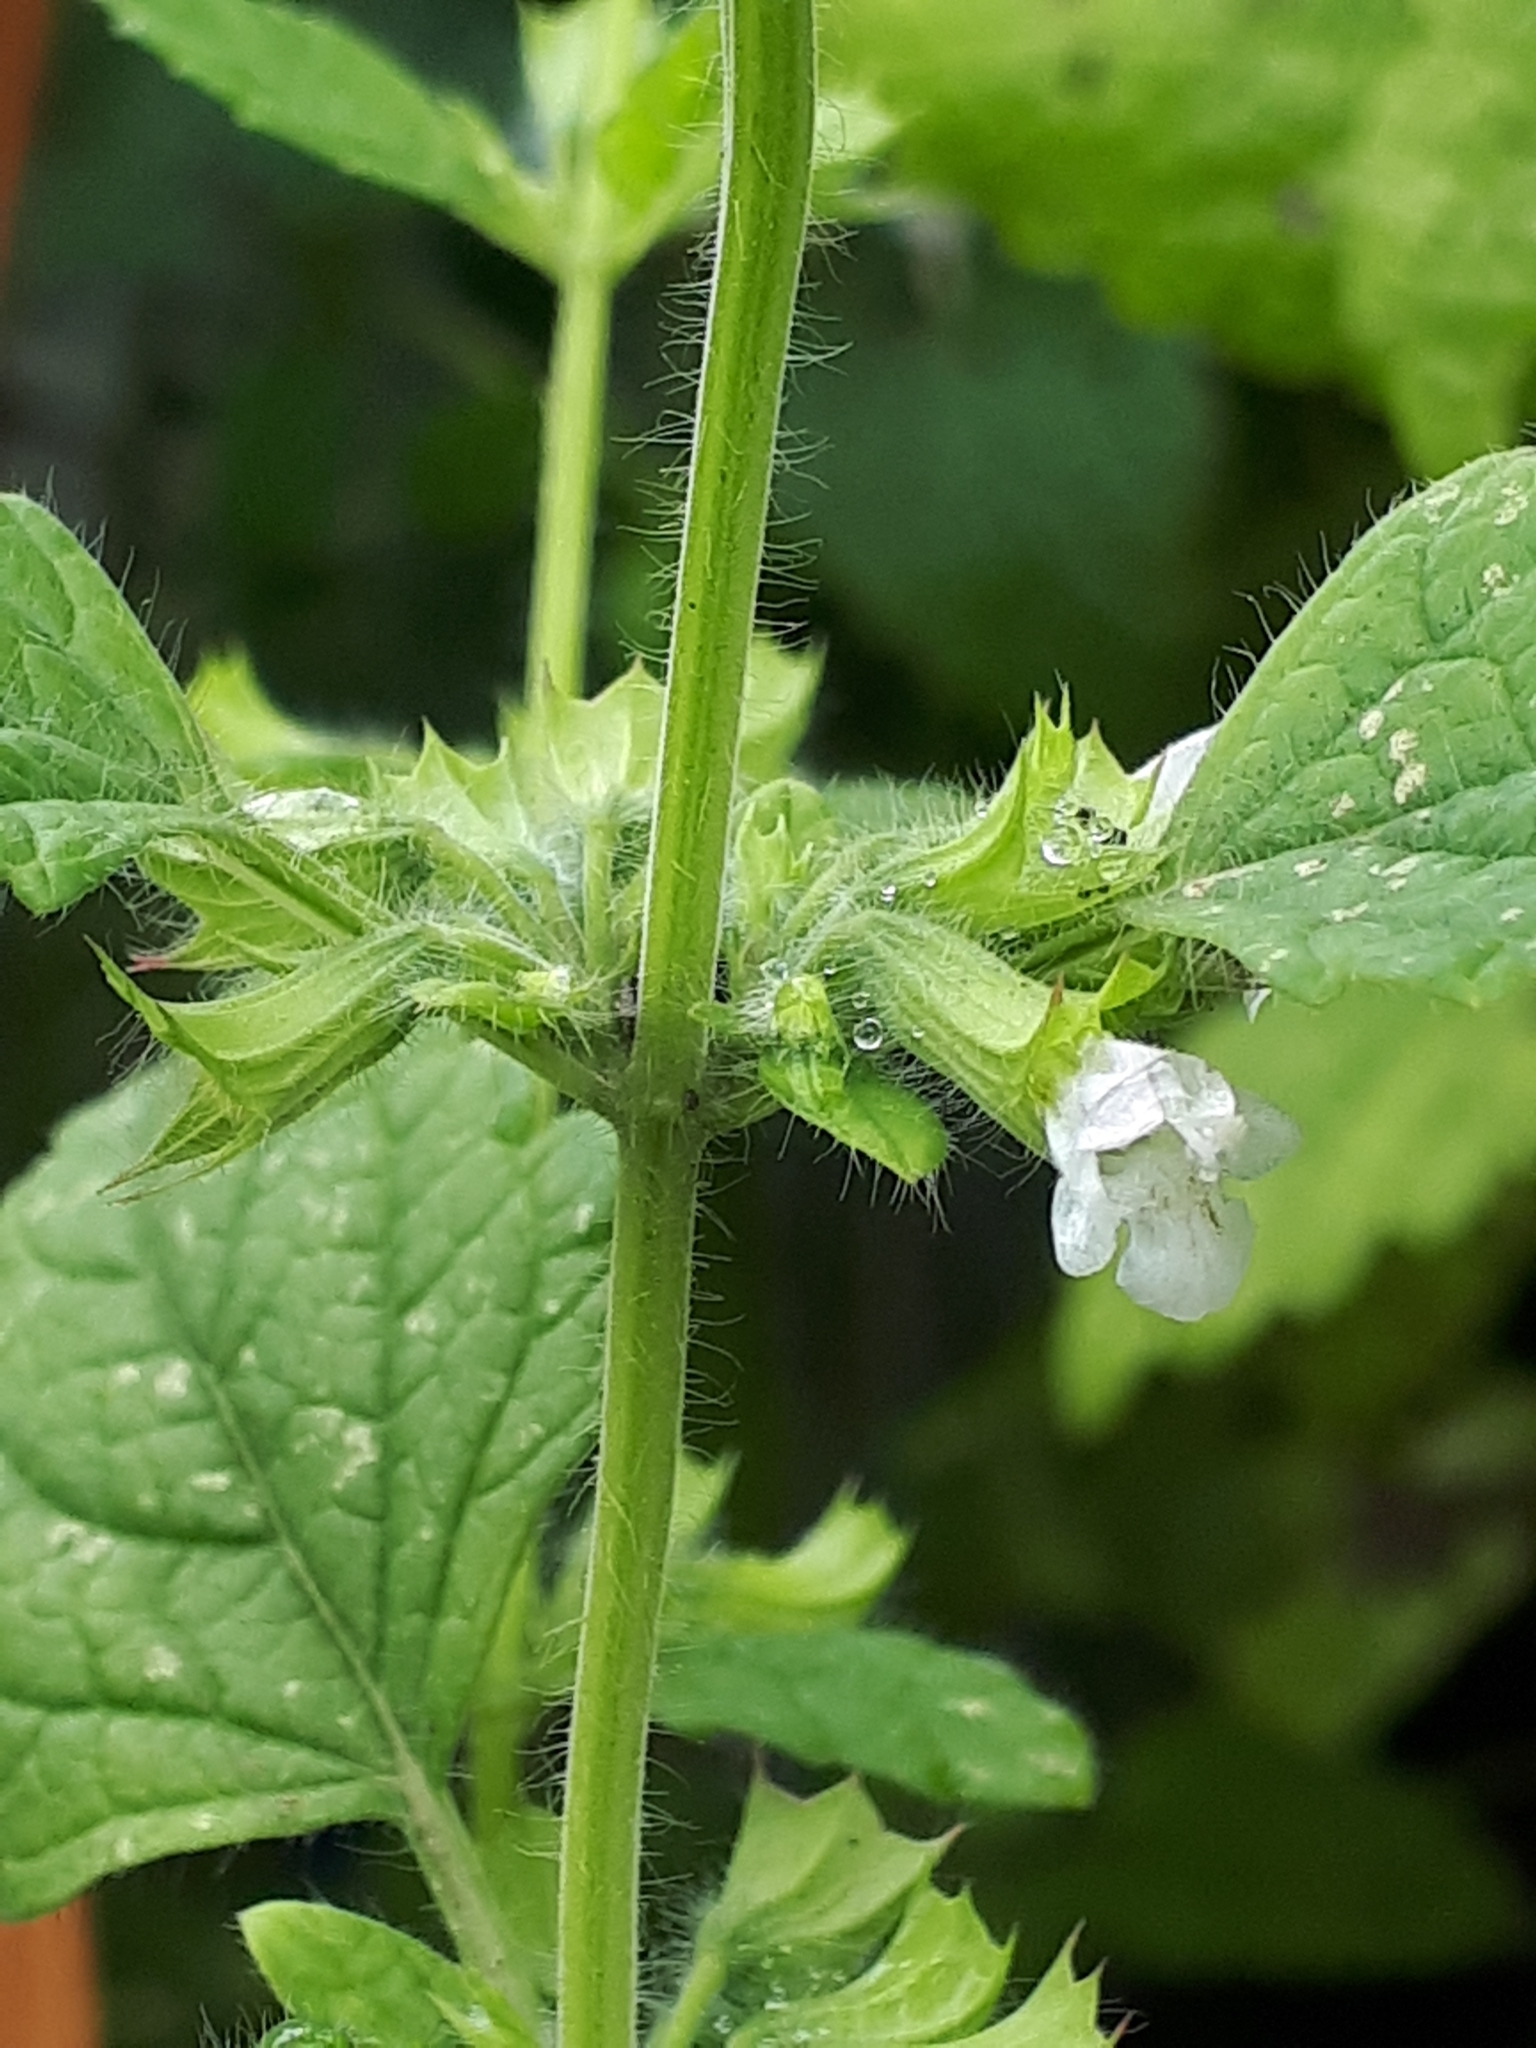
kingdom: Plantae
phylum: Tracheophyta
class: Magnoliopsida
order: Lamiales
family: Lamiaceae
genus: Melissa
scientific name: Melissa officinalis
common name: Balm
